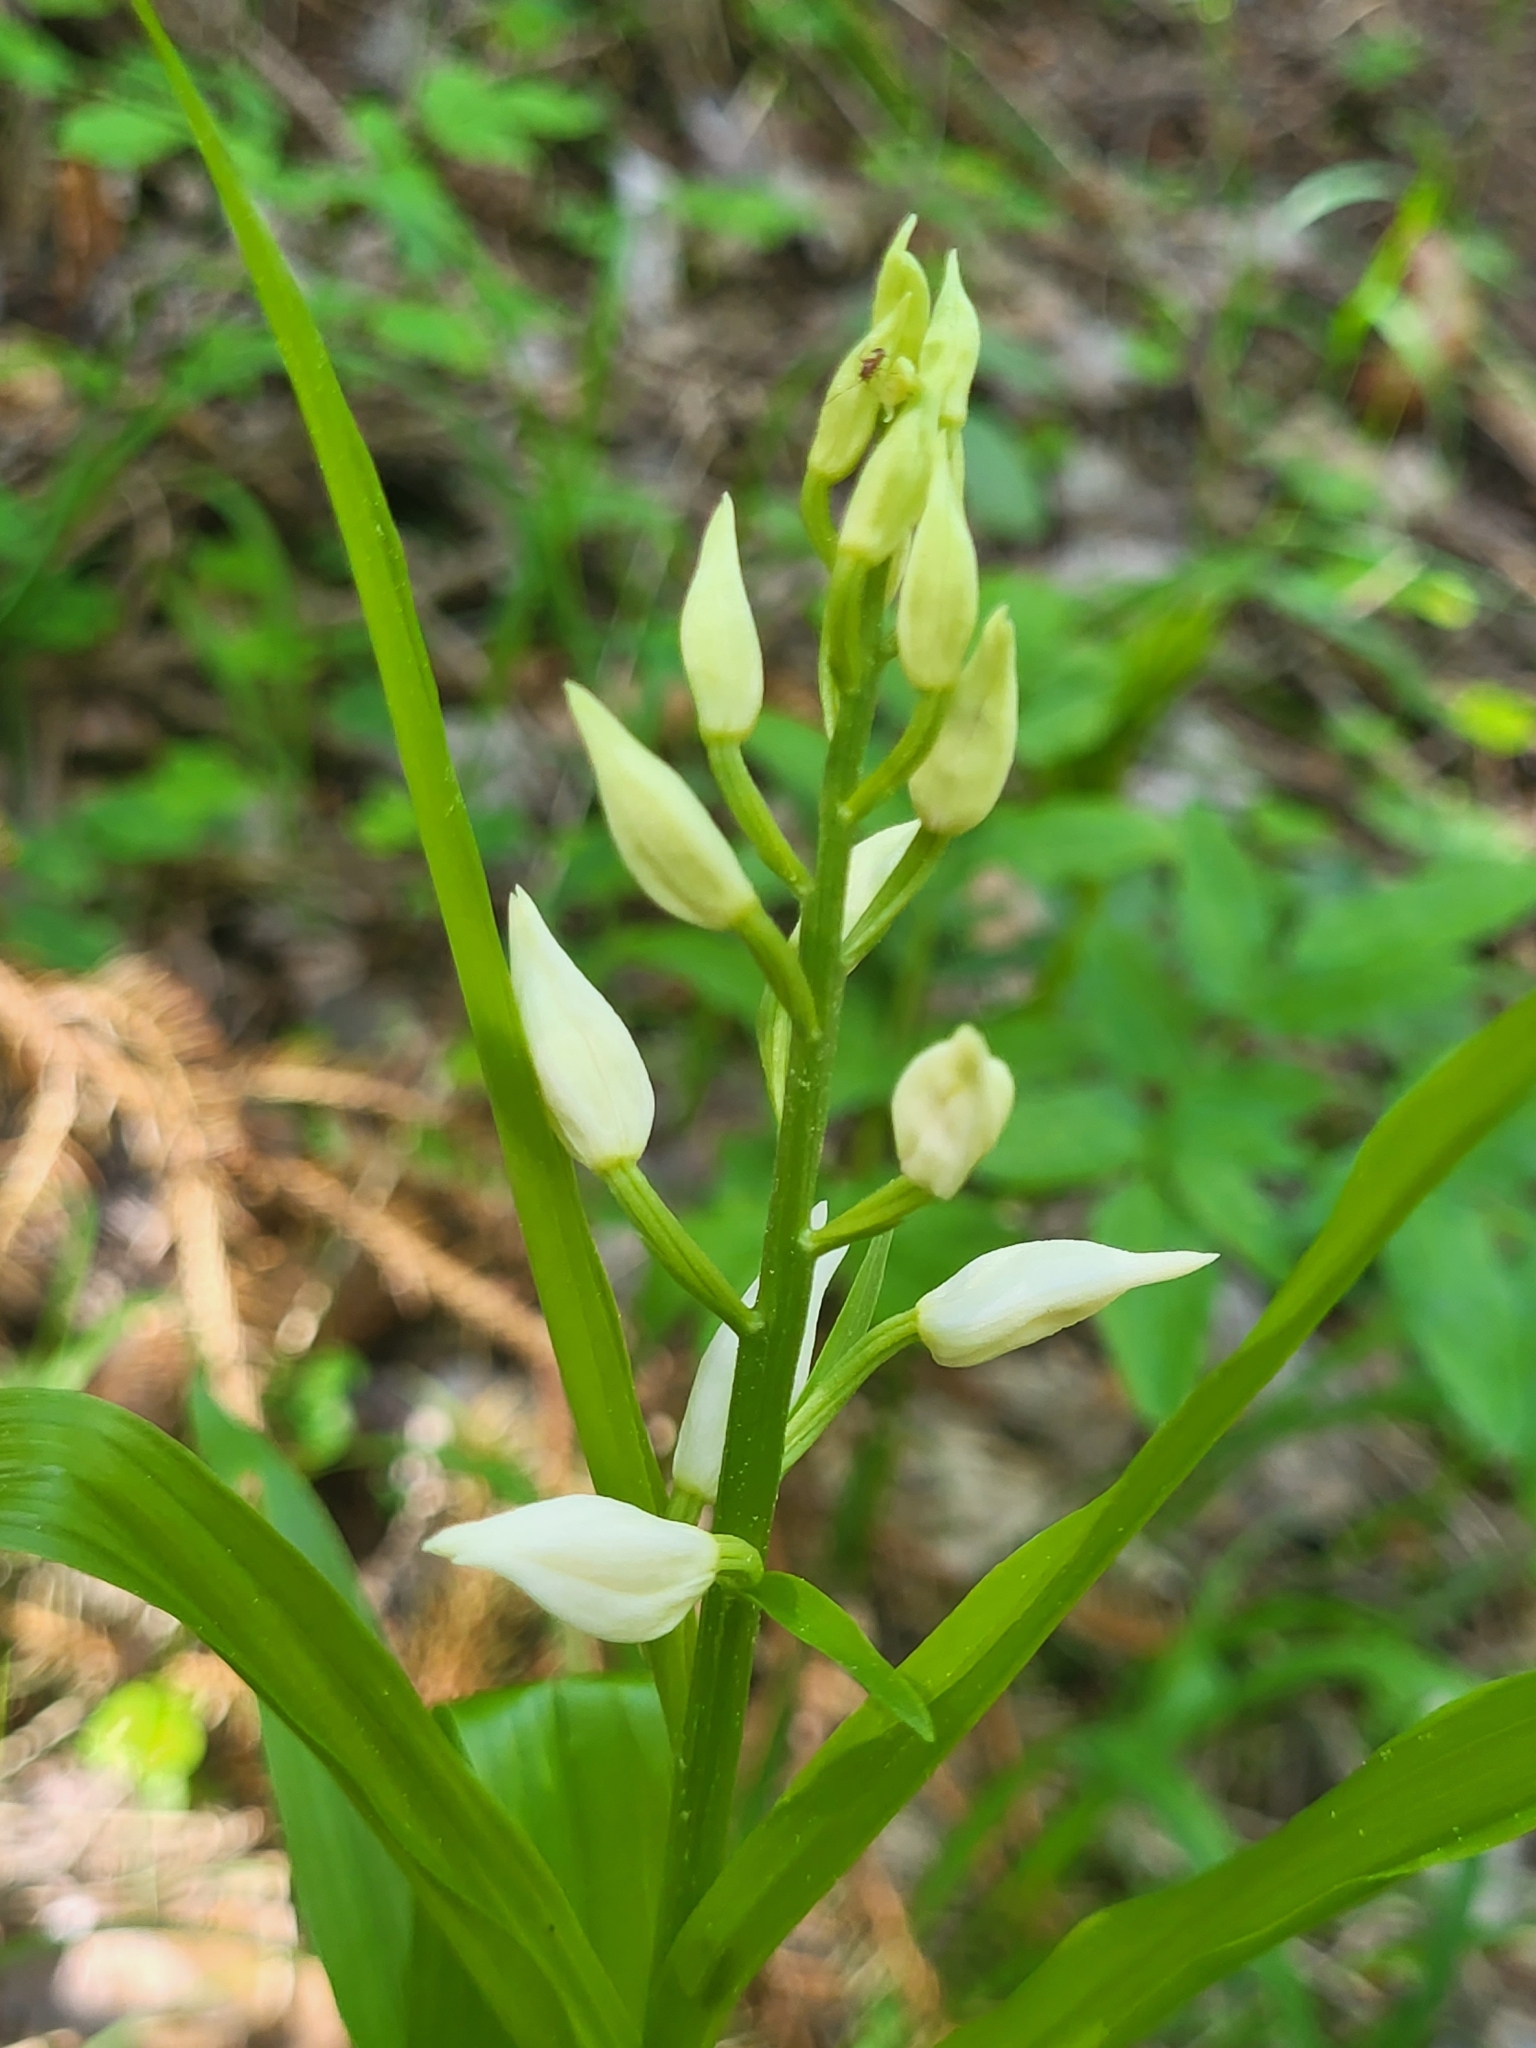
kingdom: Plantae
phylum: Tracheophyta
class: Liliopsida
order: Asparagales
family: Orchidaceae
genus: Cephalanthera
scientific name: Cephalanthera longifolia
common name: Narrow-leaved helleborine
